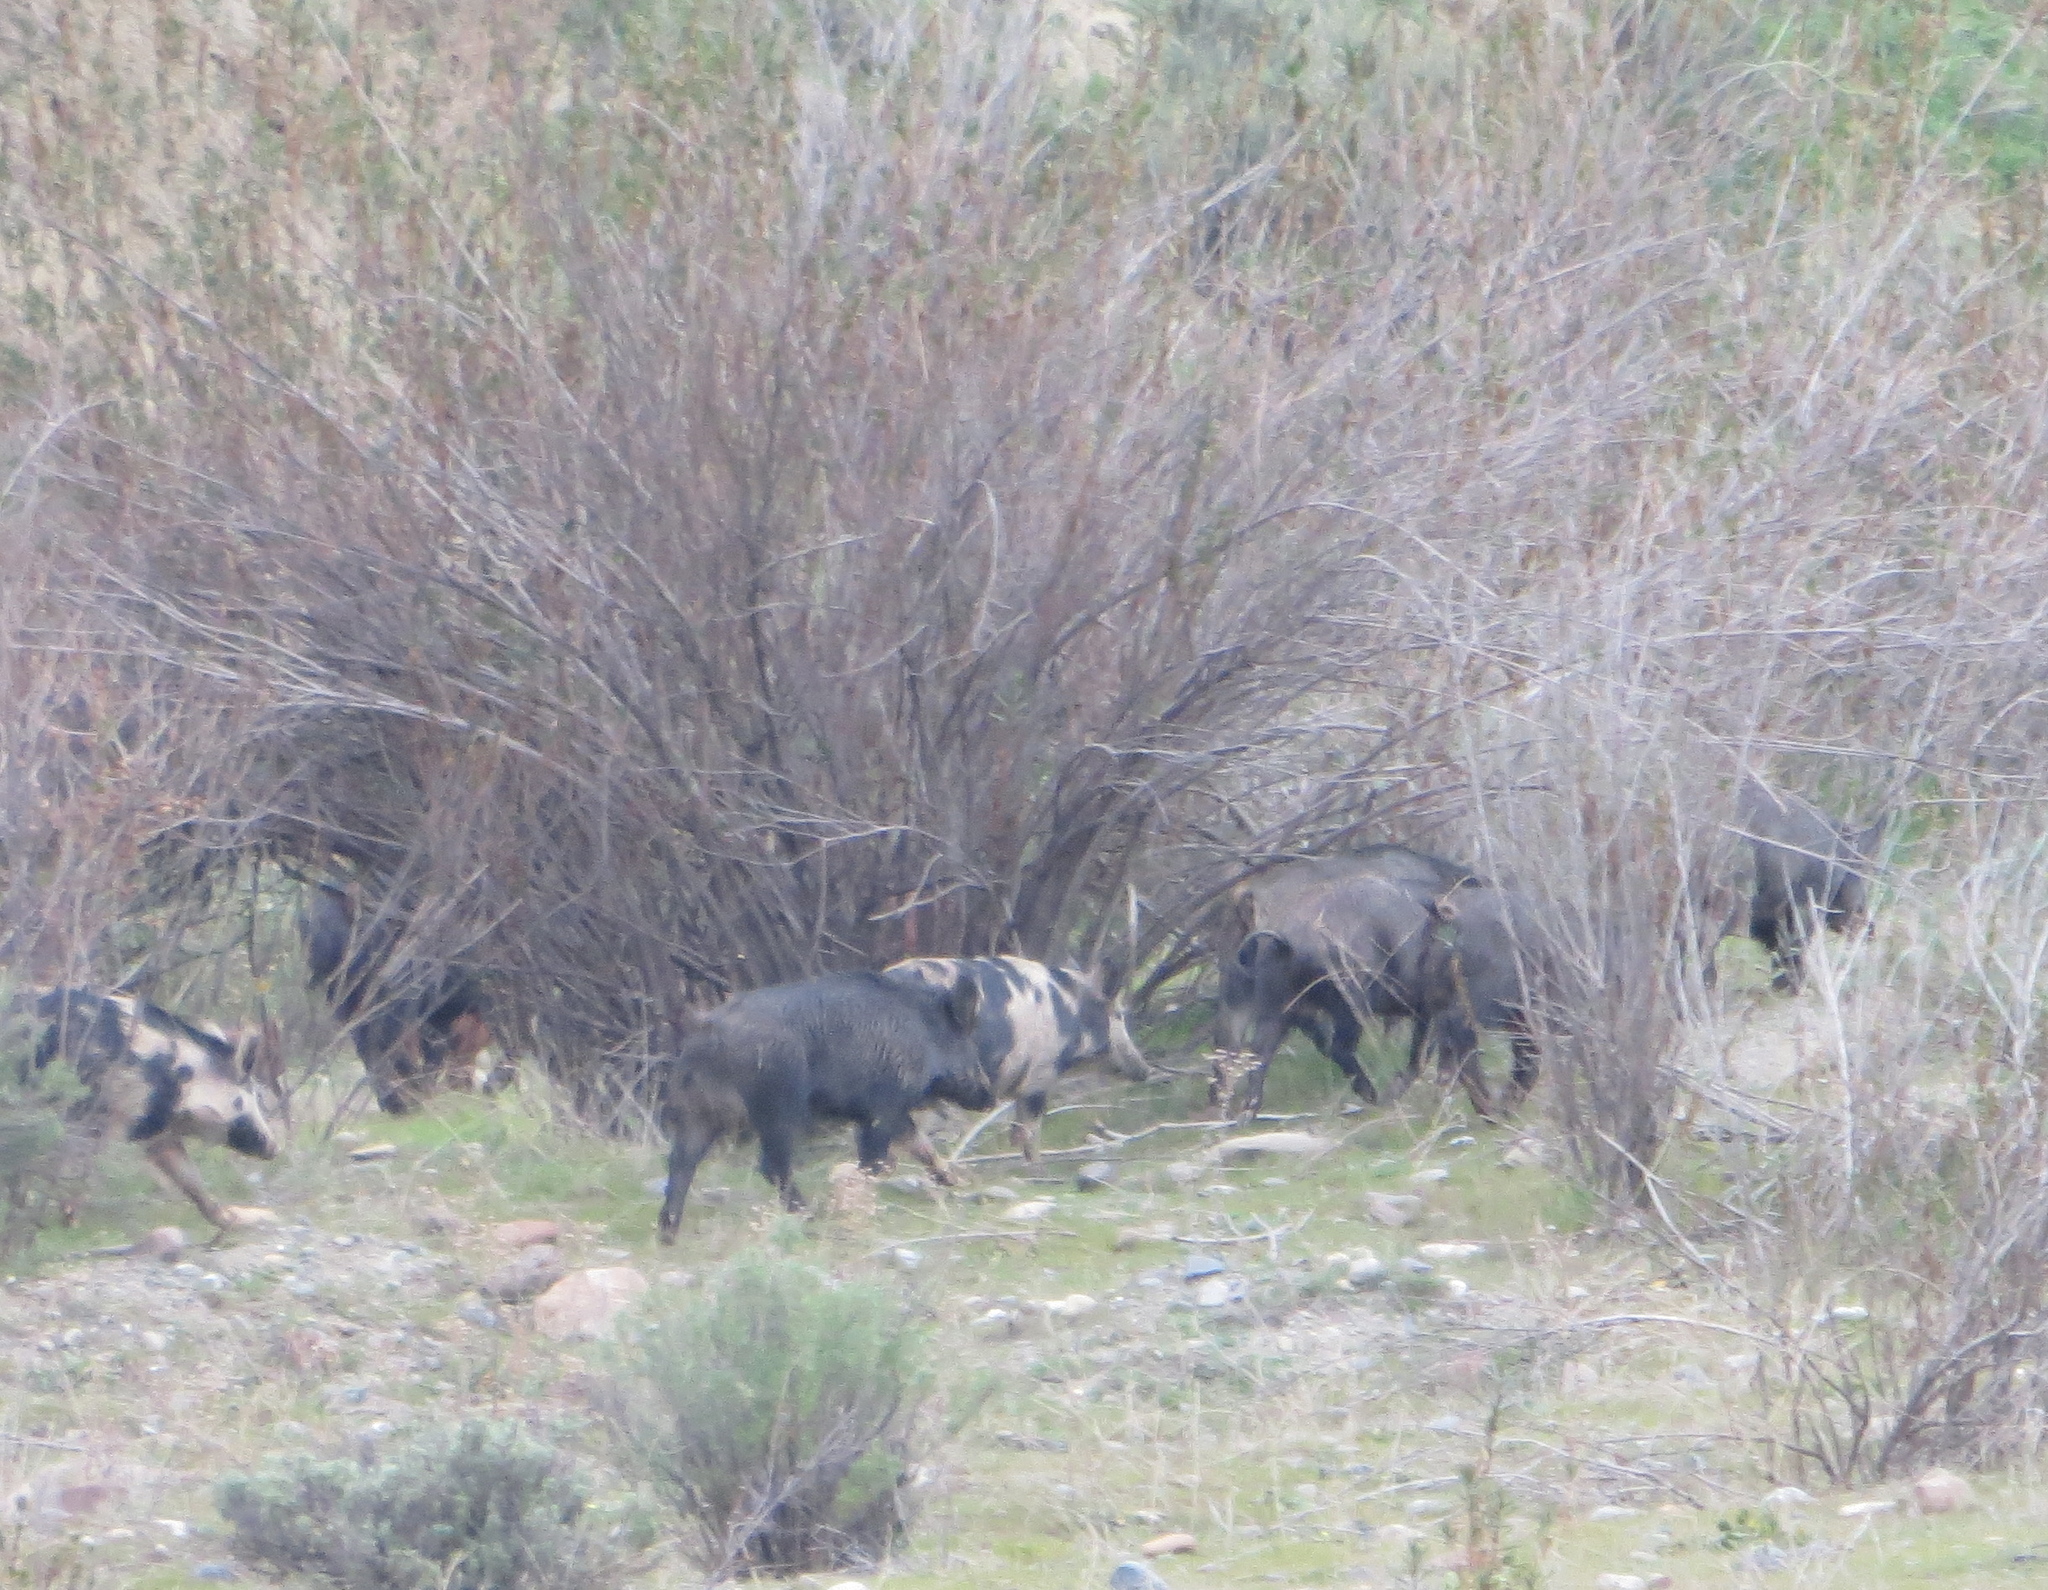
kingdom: Animalia
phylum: Chordata
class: Mammalia
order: Artiodactyla
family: Suidae
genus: Sus
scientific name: Sus scrofa
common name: Wild boar
